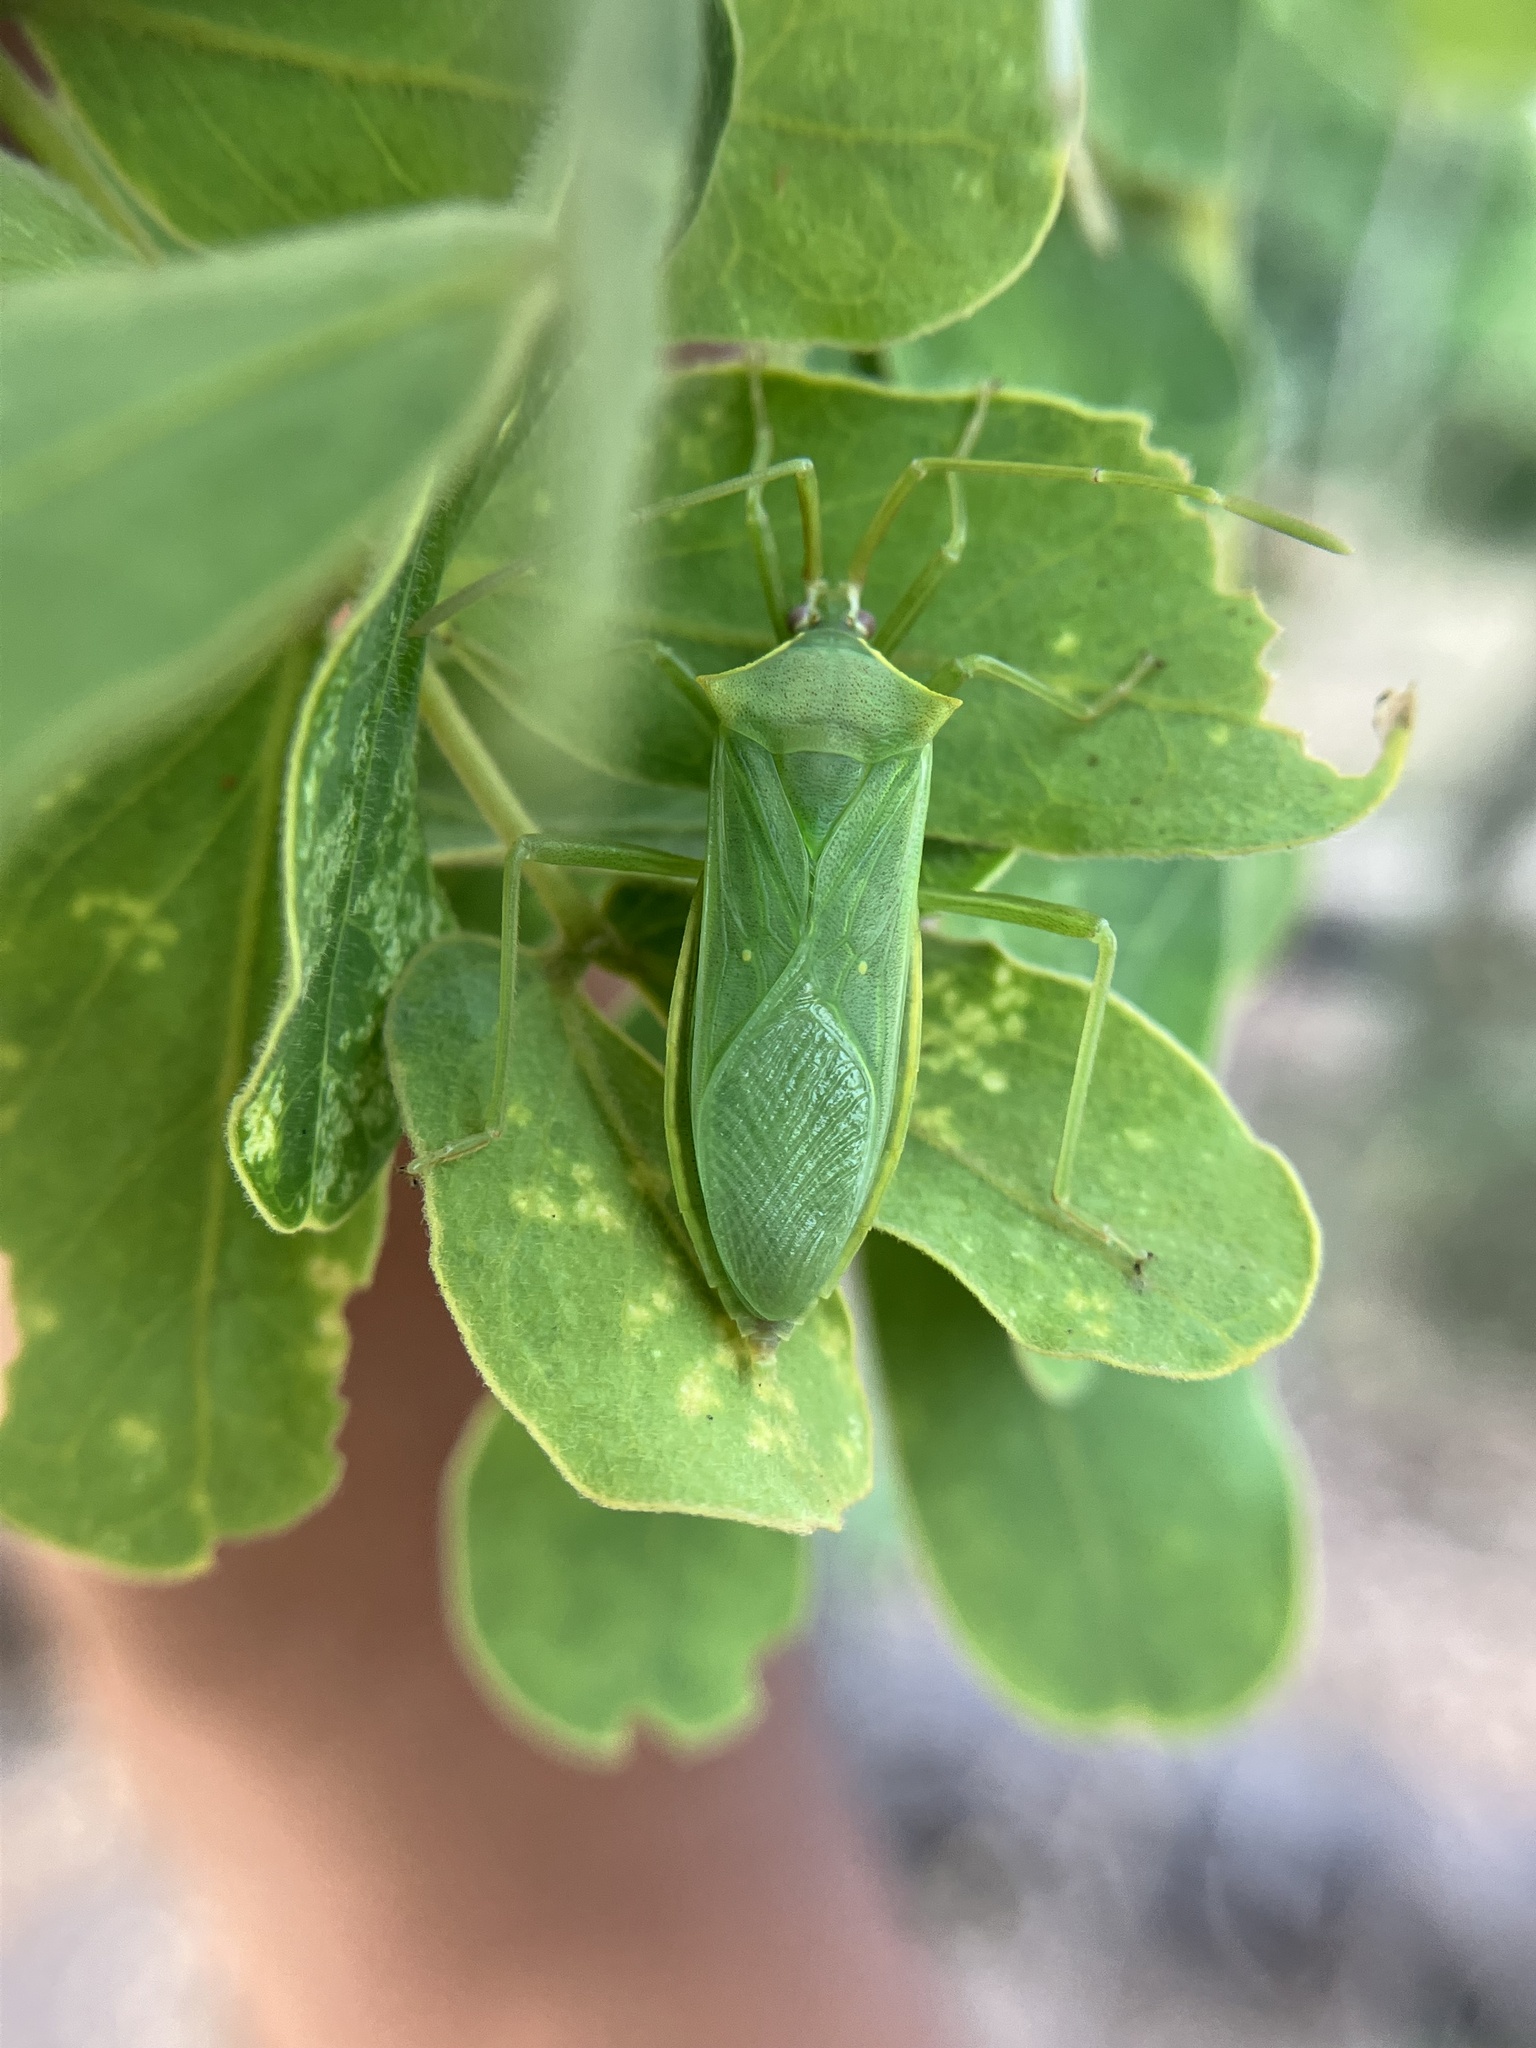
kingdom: Animalia
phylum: Arthropoda
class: Insecta
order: Hemiptera
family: Coreidae
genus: Homoeocerus
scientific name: Homoeocerus lacertosus
